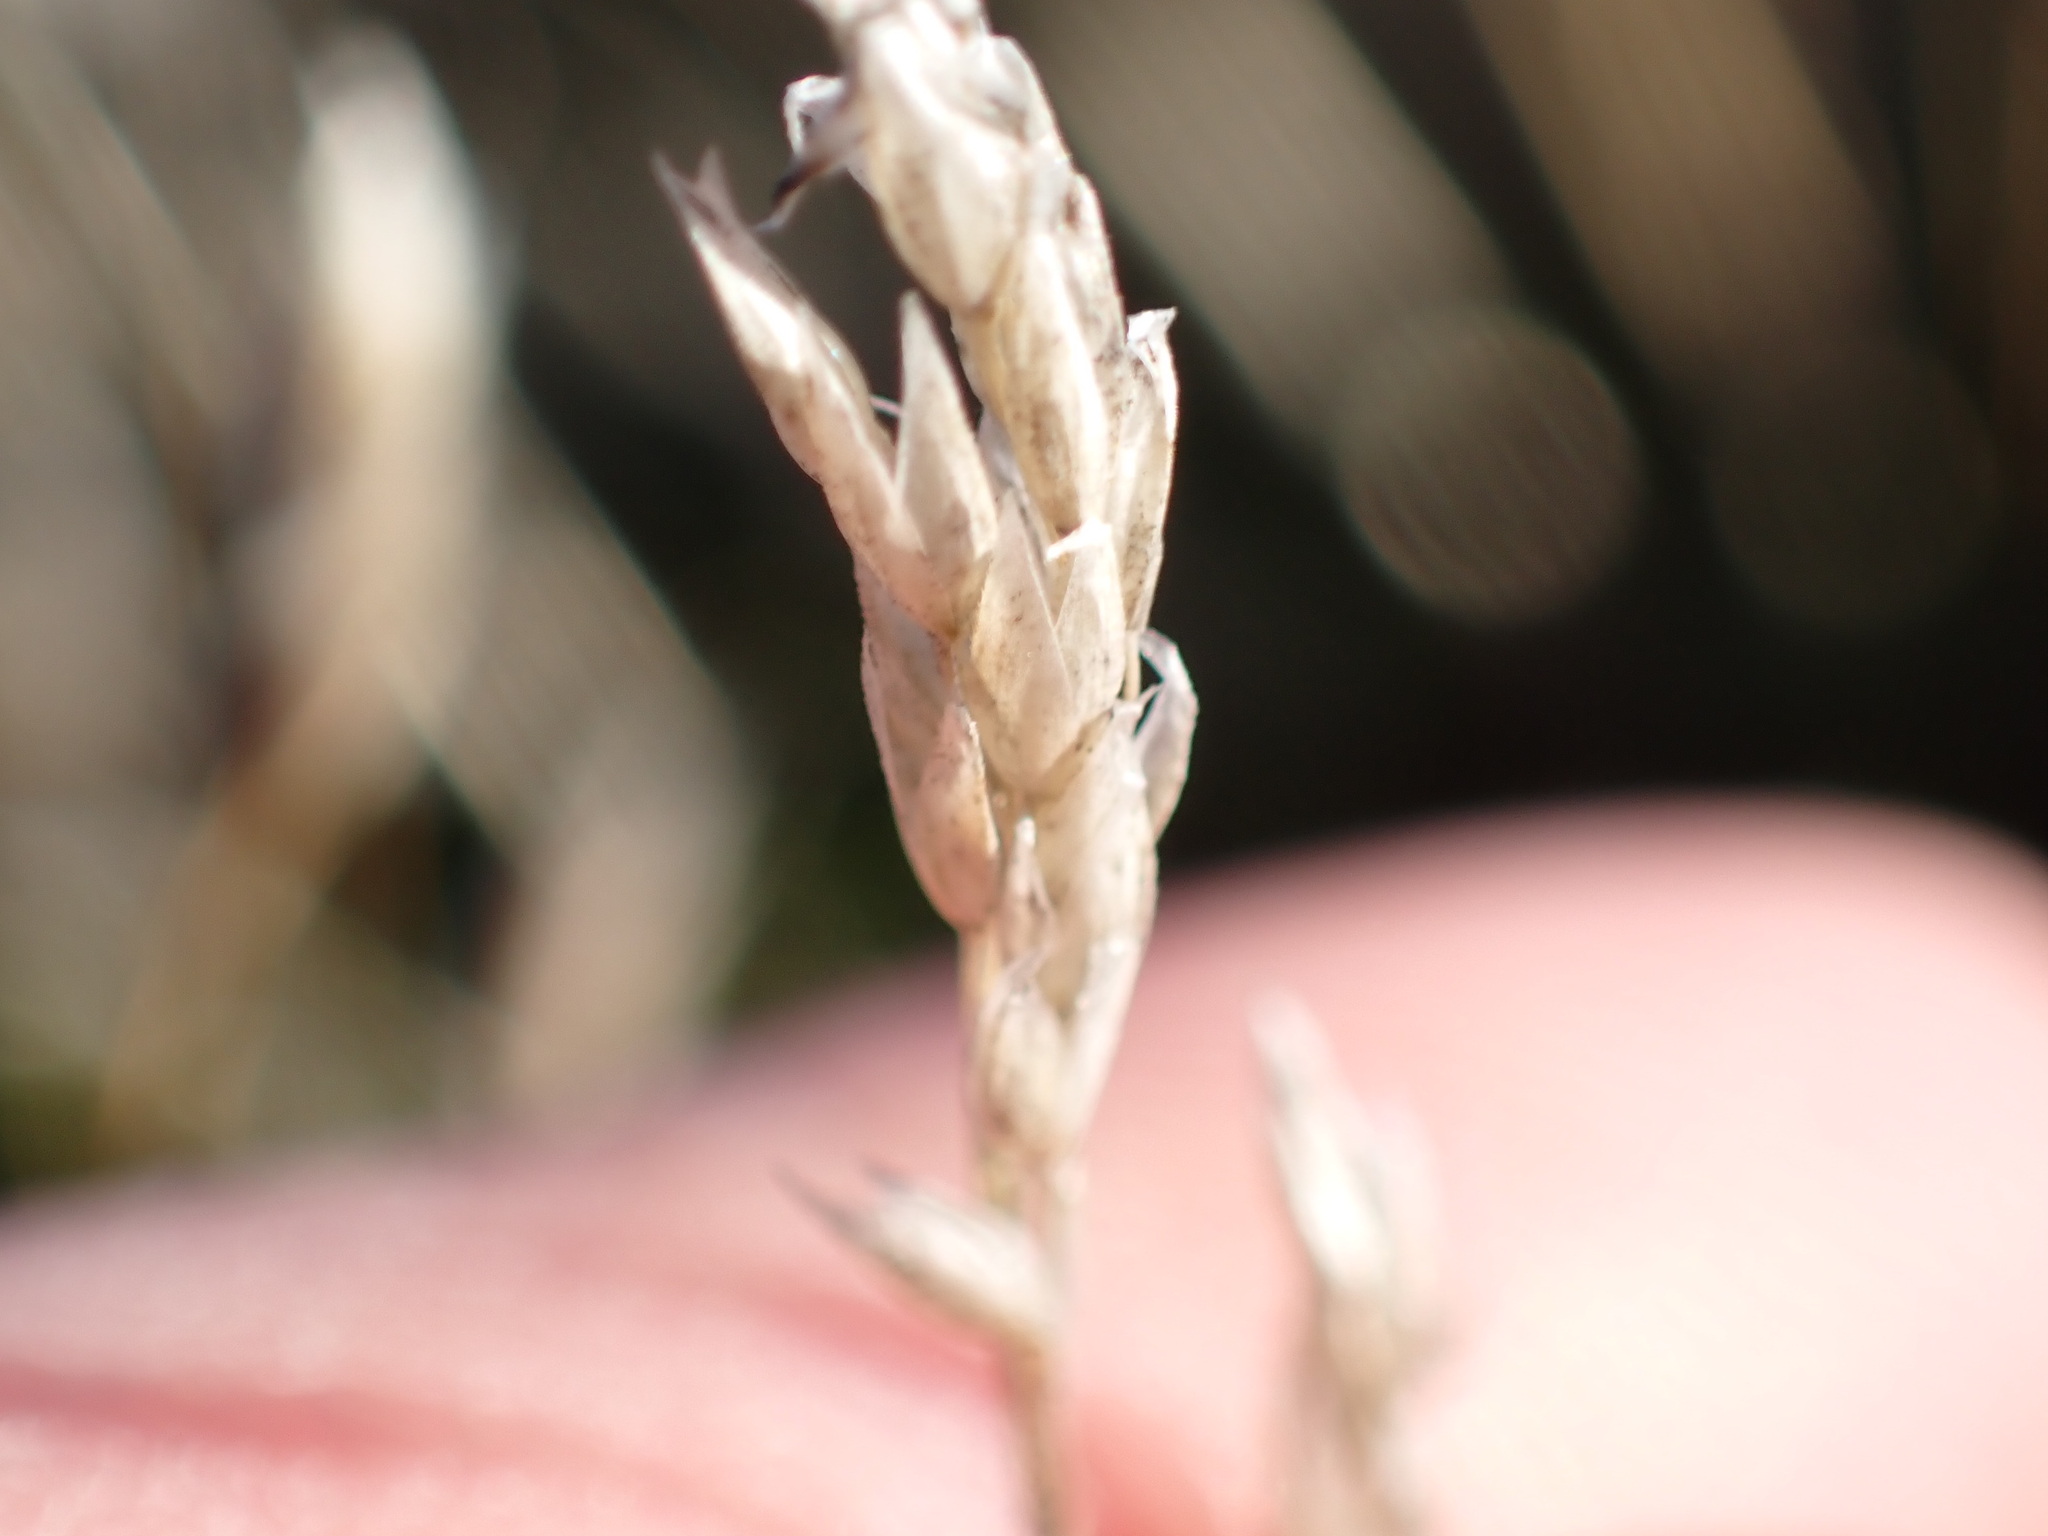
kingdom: Plantae
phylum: Tracheophyta
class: Liliopsida
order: Poales
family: Poaceae
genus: Aira
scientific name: Aira praecox
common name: Early hair-grass
